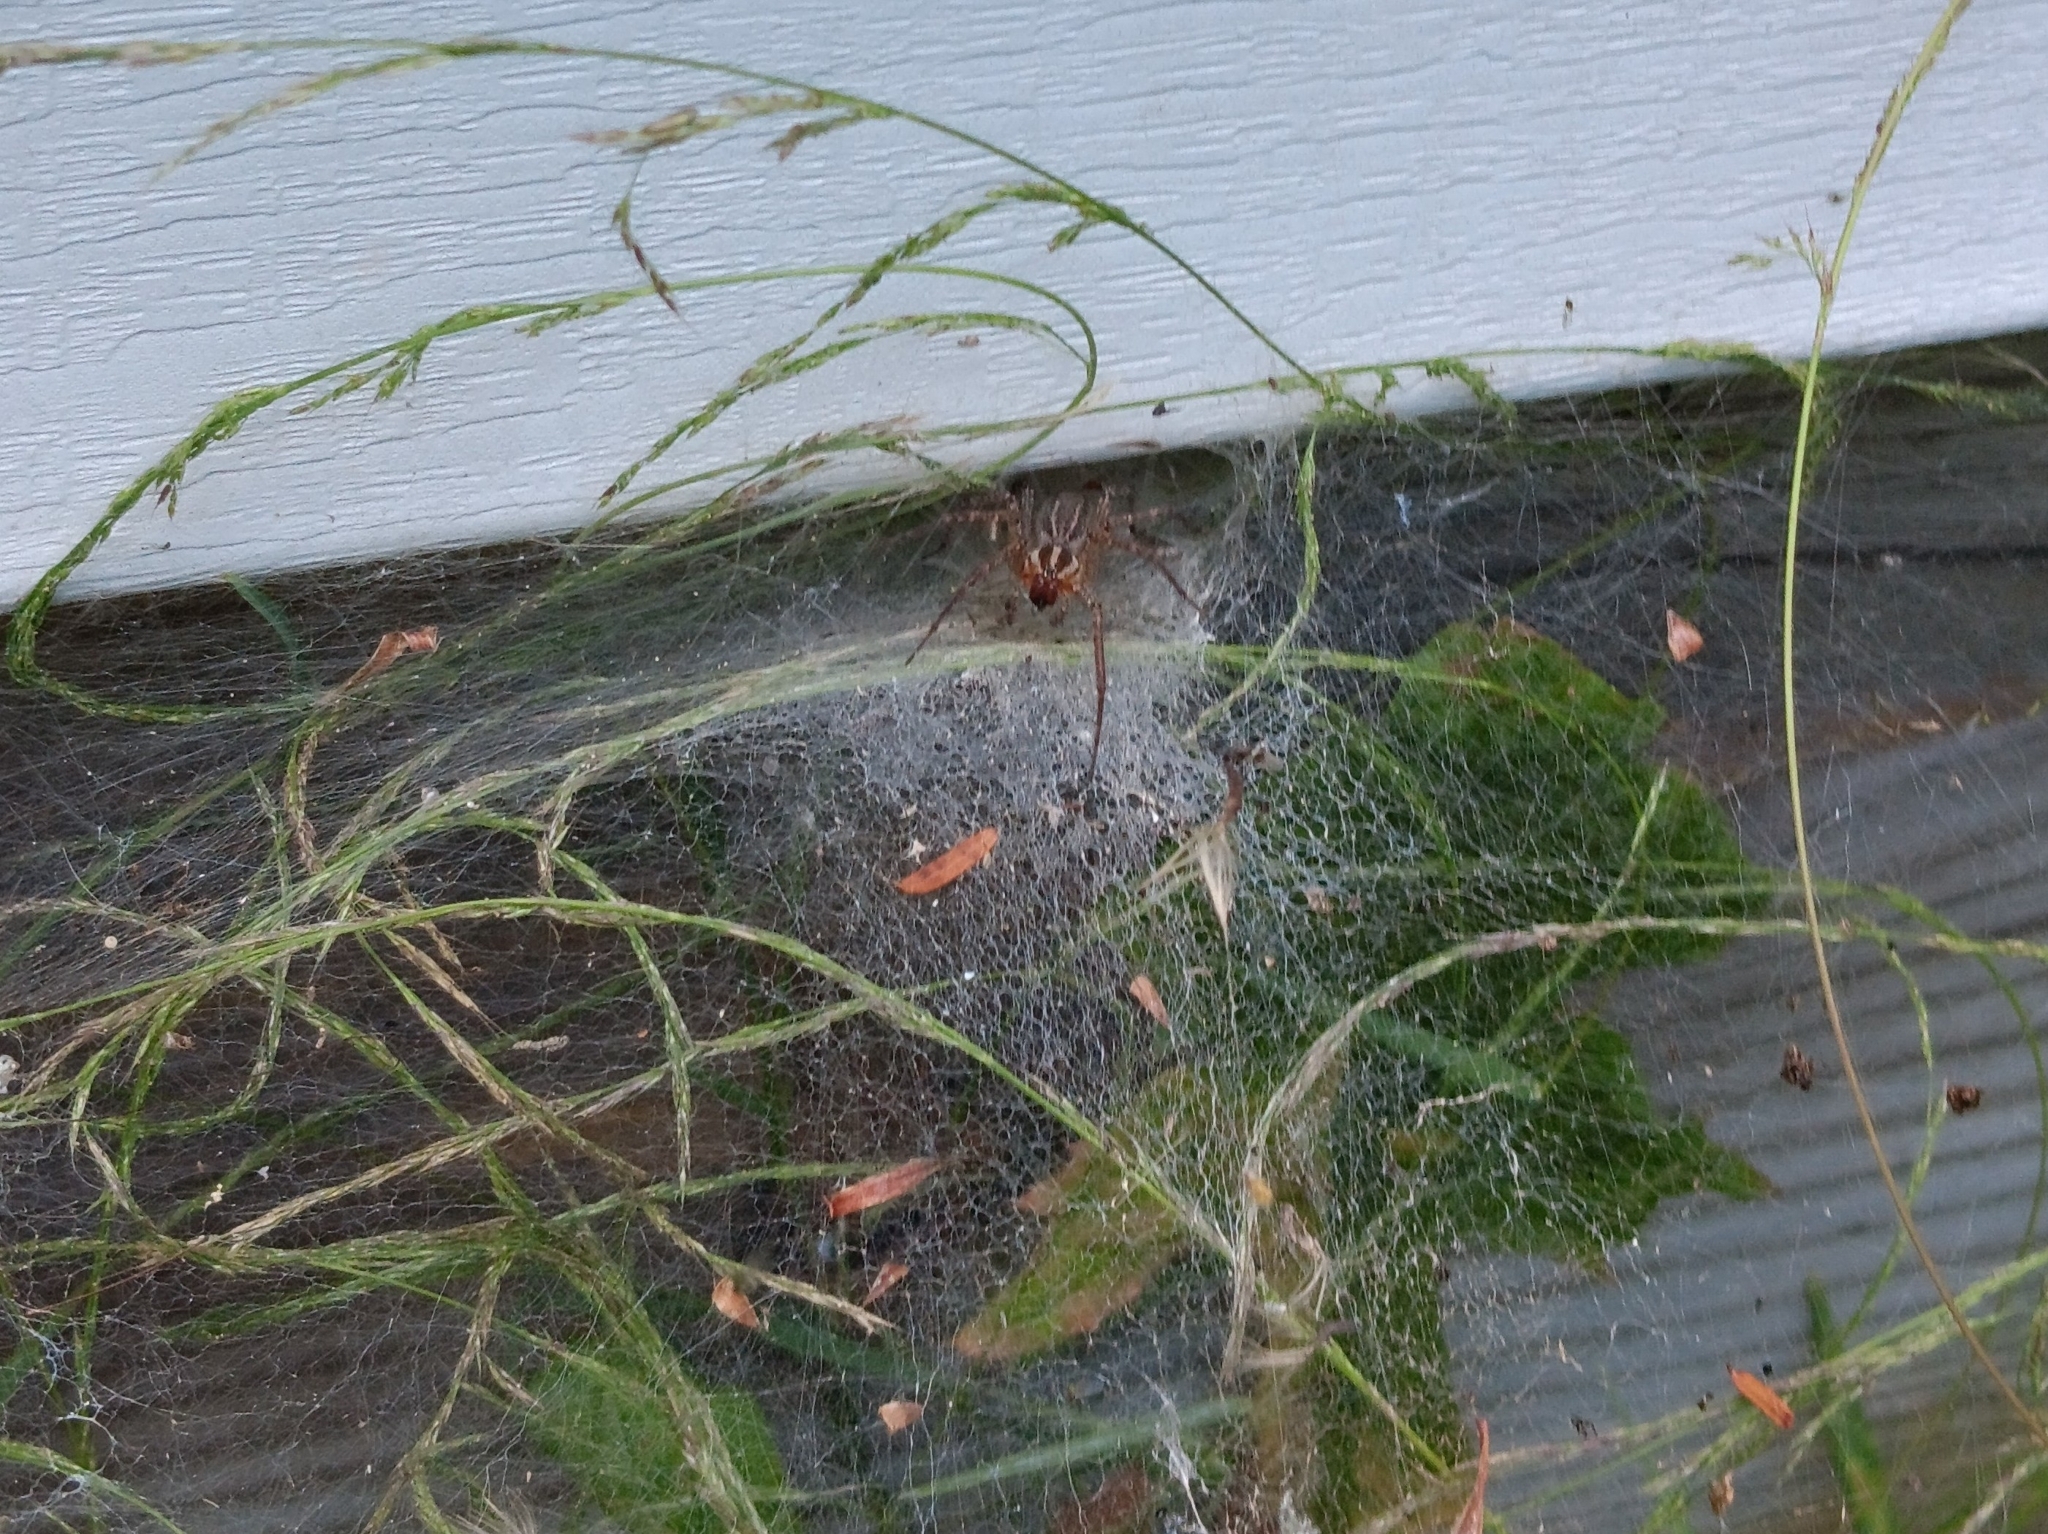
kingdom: Animalia
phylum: Arthropoda
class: Arachnida
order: Araneae
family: Agelenidae
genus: Agelenopsis
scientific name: Agelenopsis
